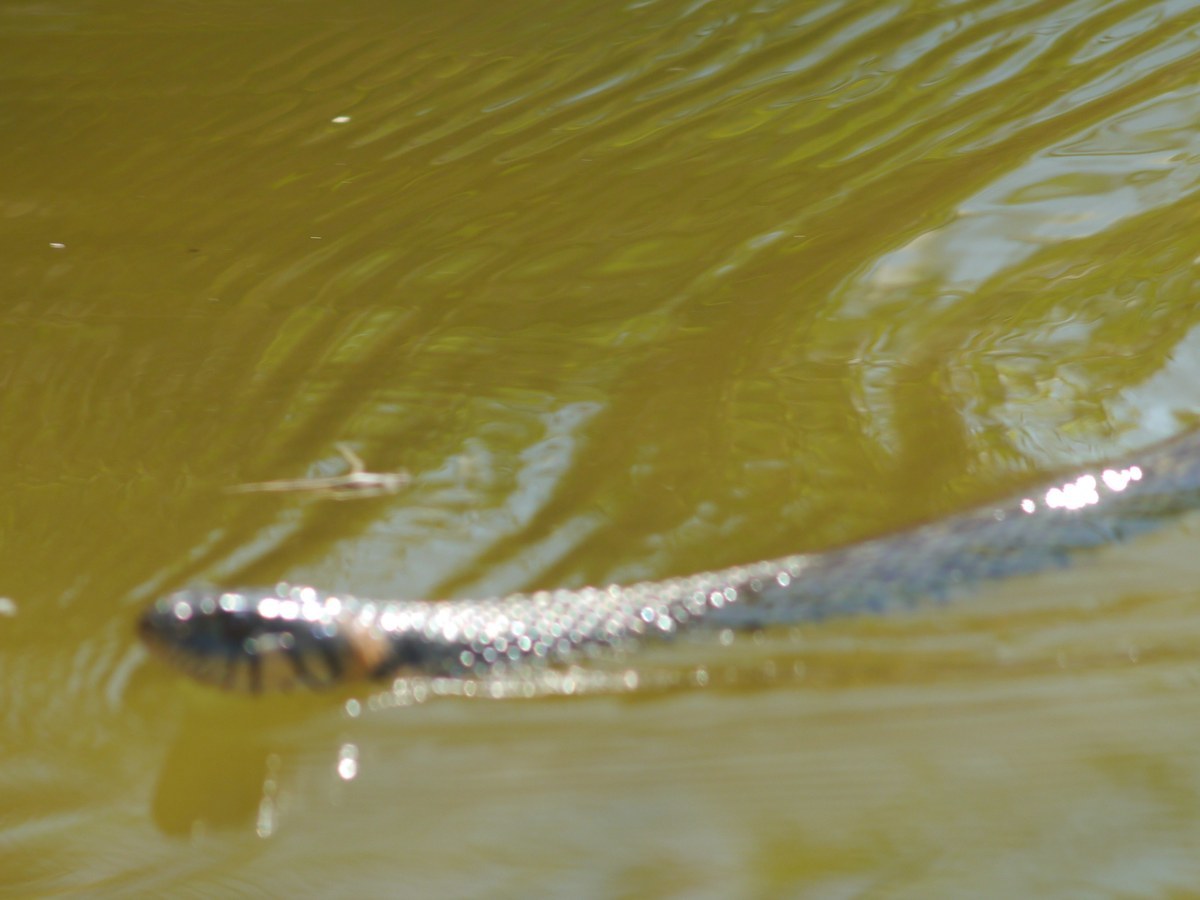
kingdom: Animalia
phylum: Chordata
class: Squamata
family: Colubridae
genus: Natrix
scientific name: Natrix natrix
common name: Grass snake
